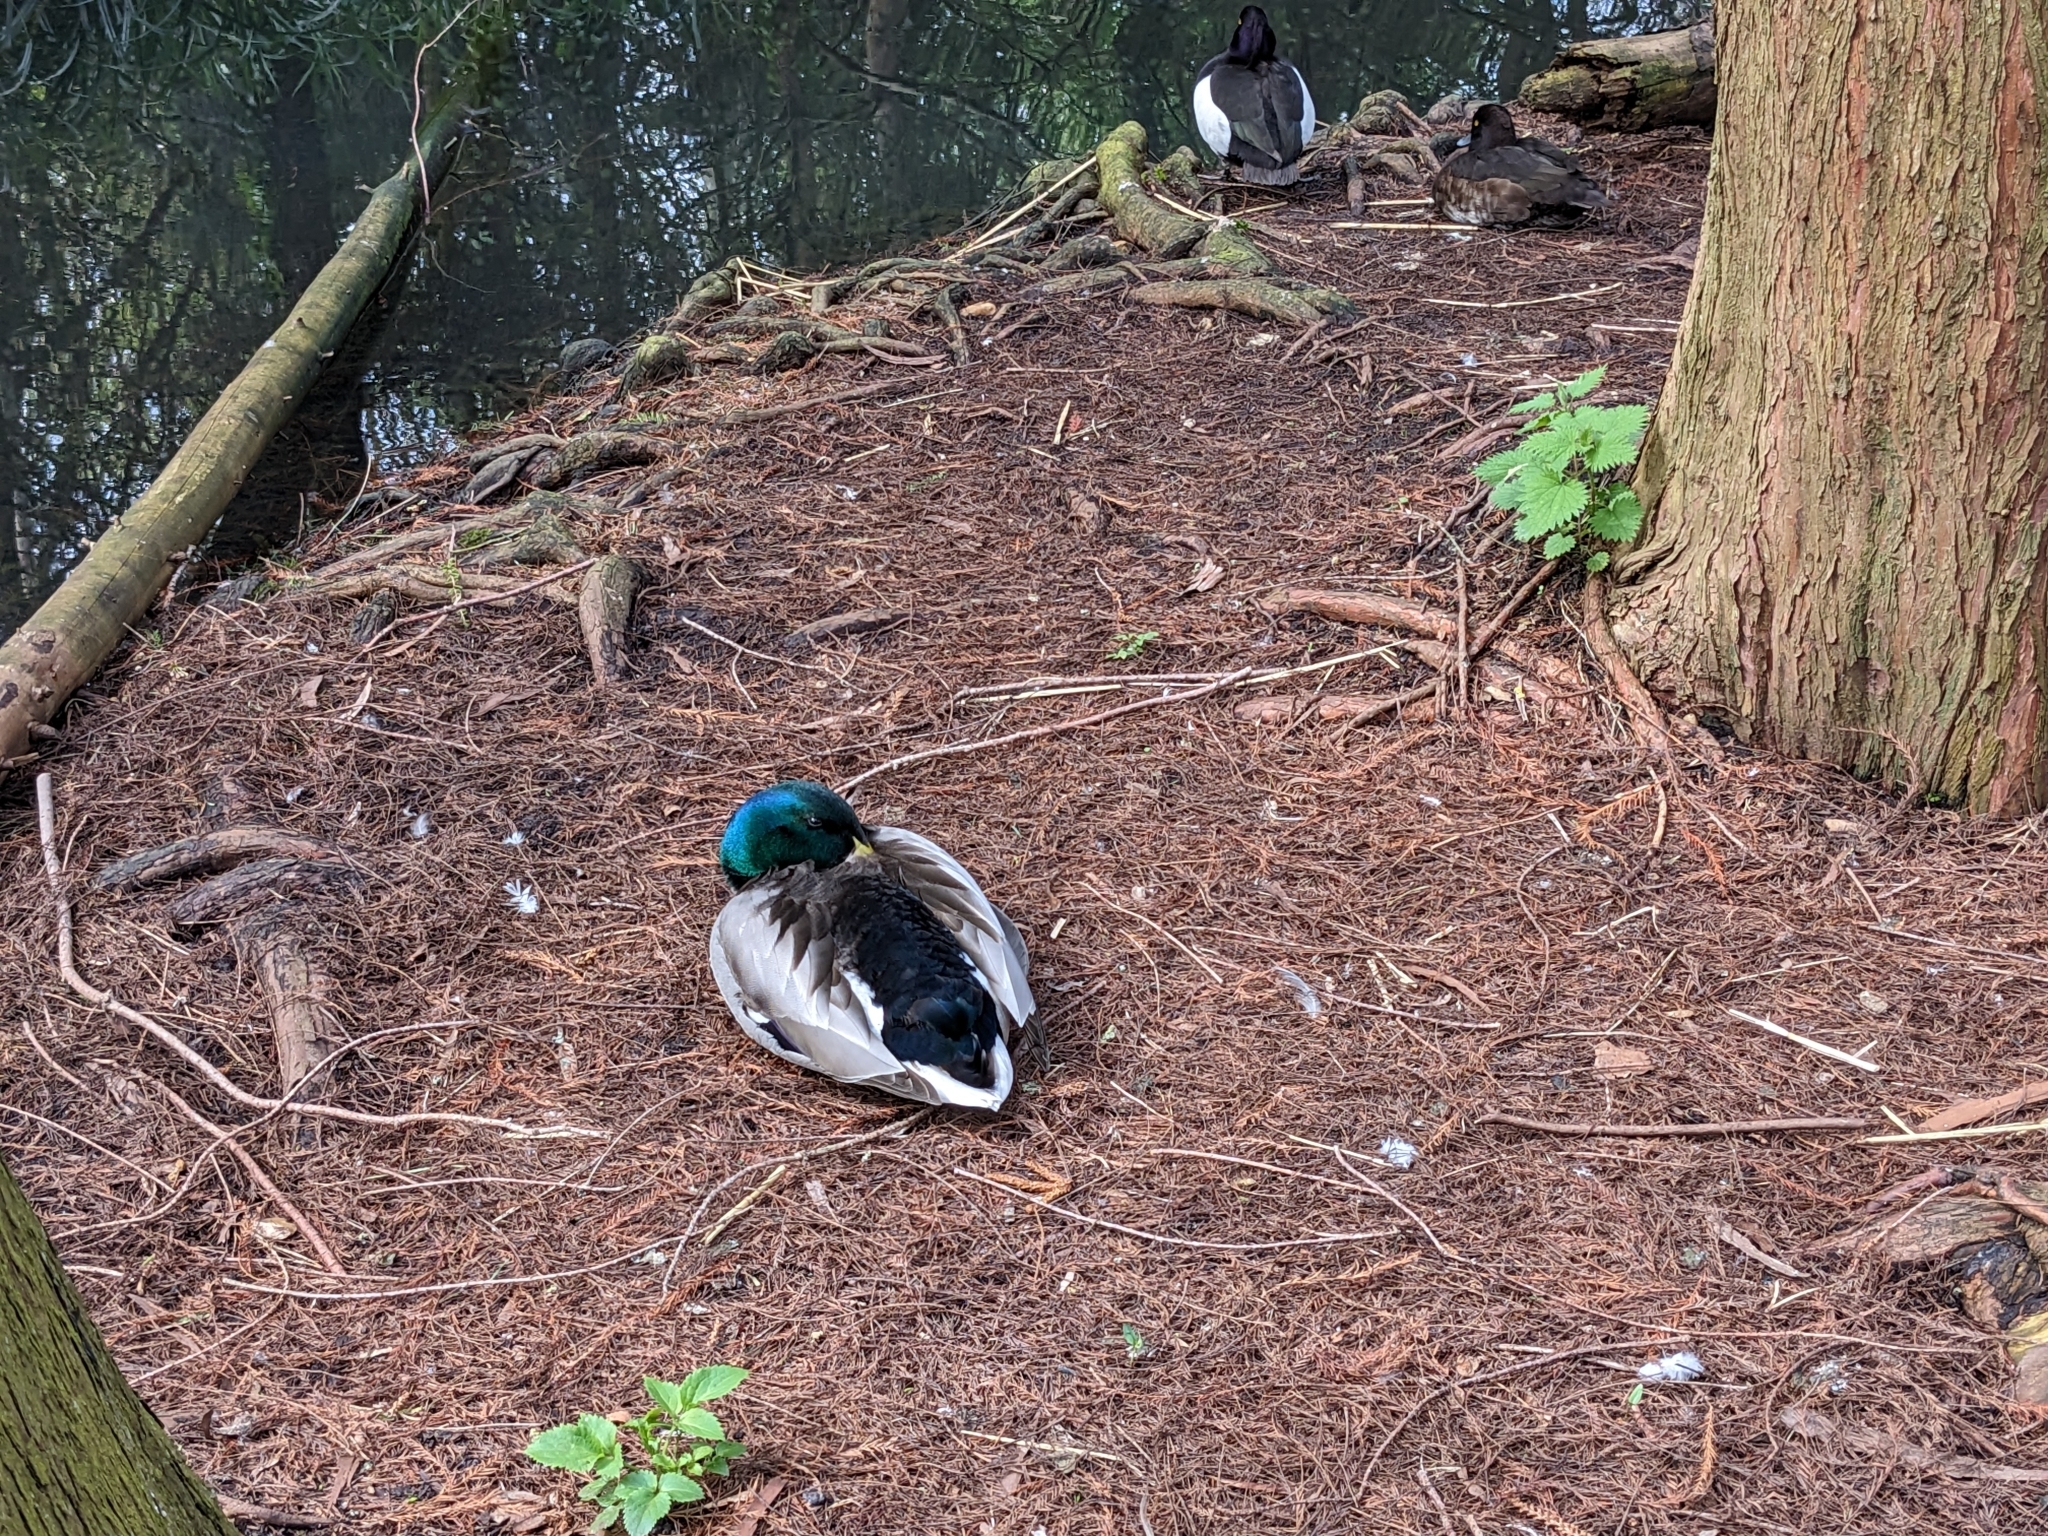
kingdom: Animalia
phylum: Chordata
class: Aves
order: Anseriformes
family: Anatidae
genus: Anas
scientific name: Anas platyrhynchos
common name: Mallard
